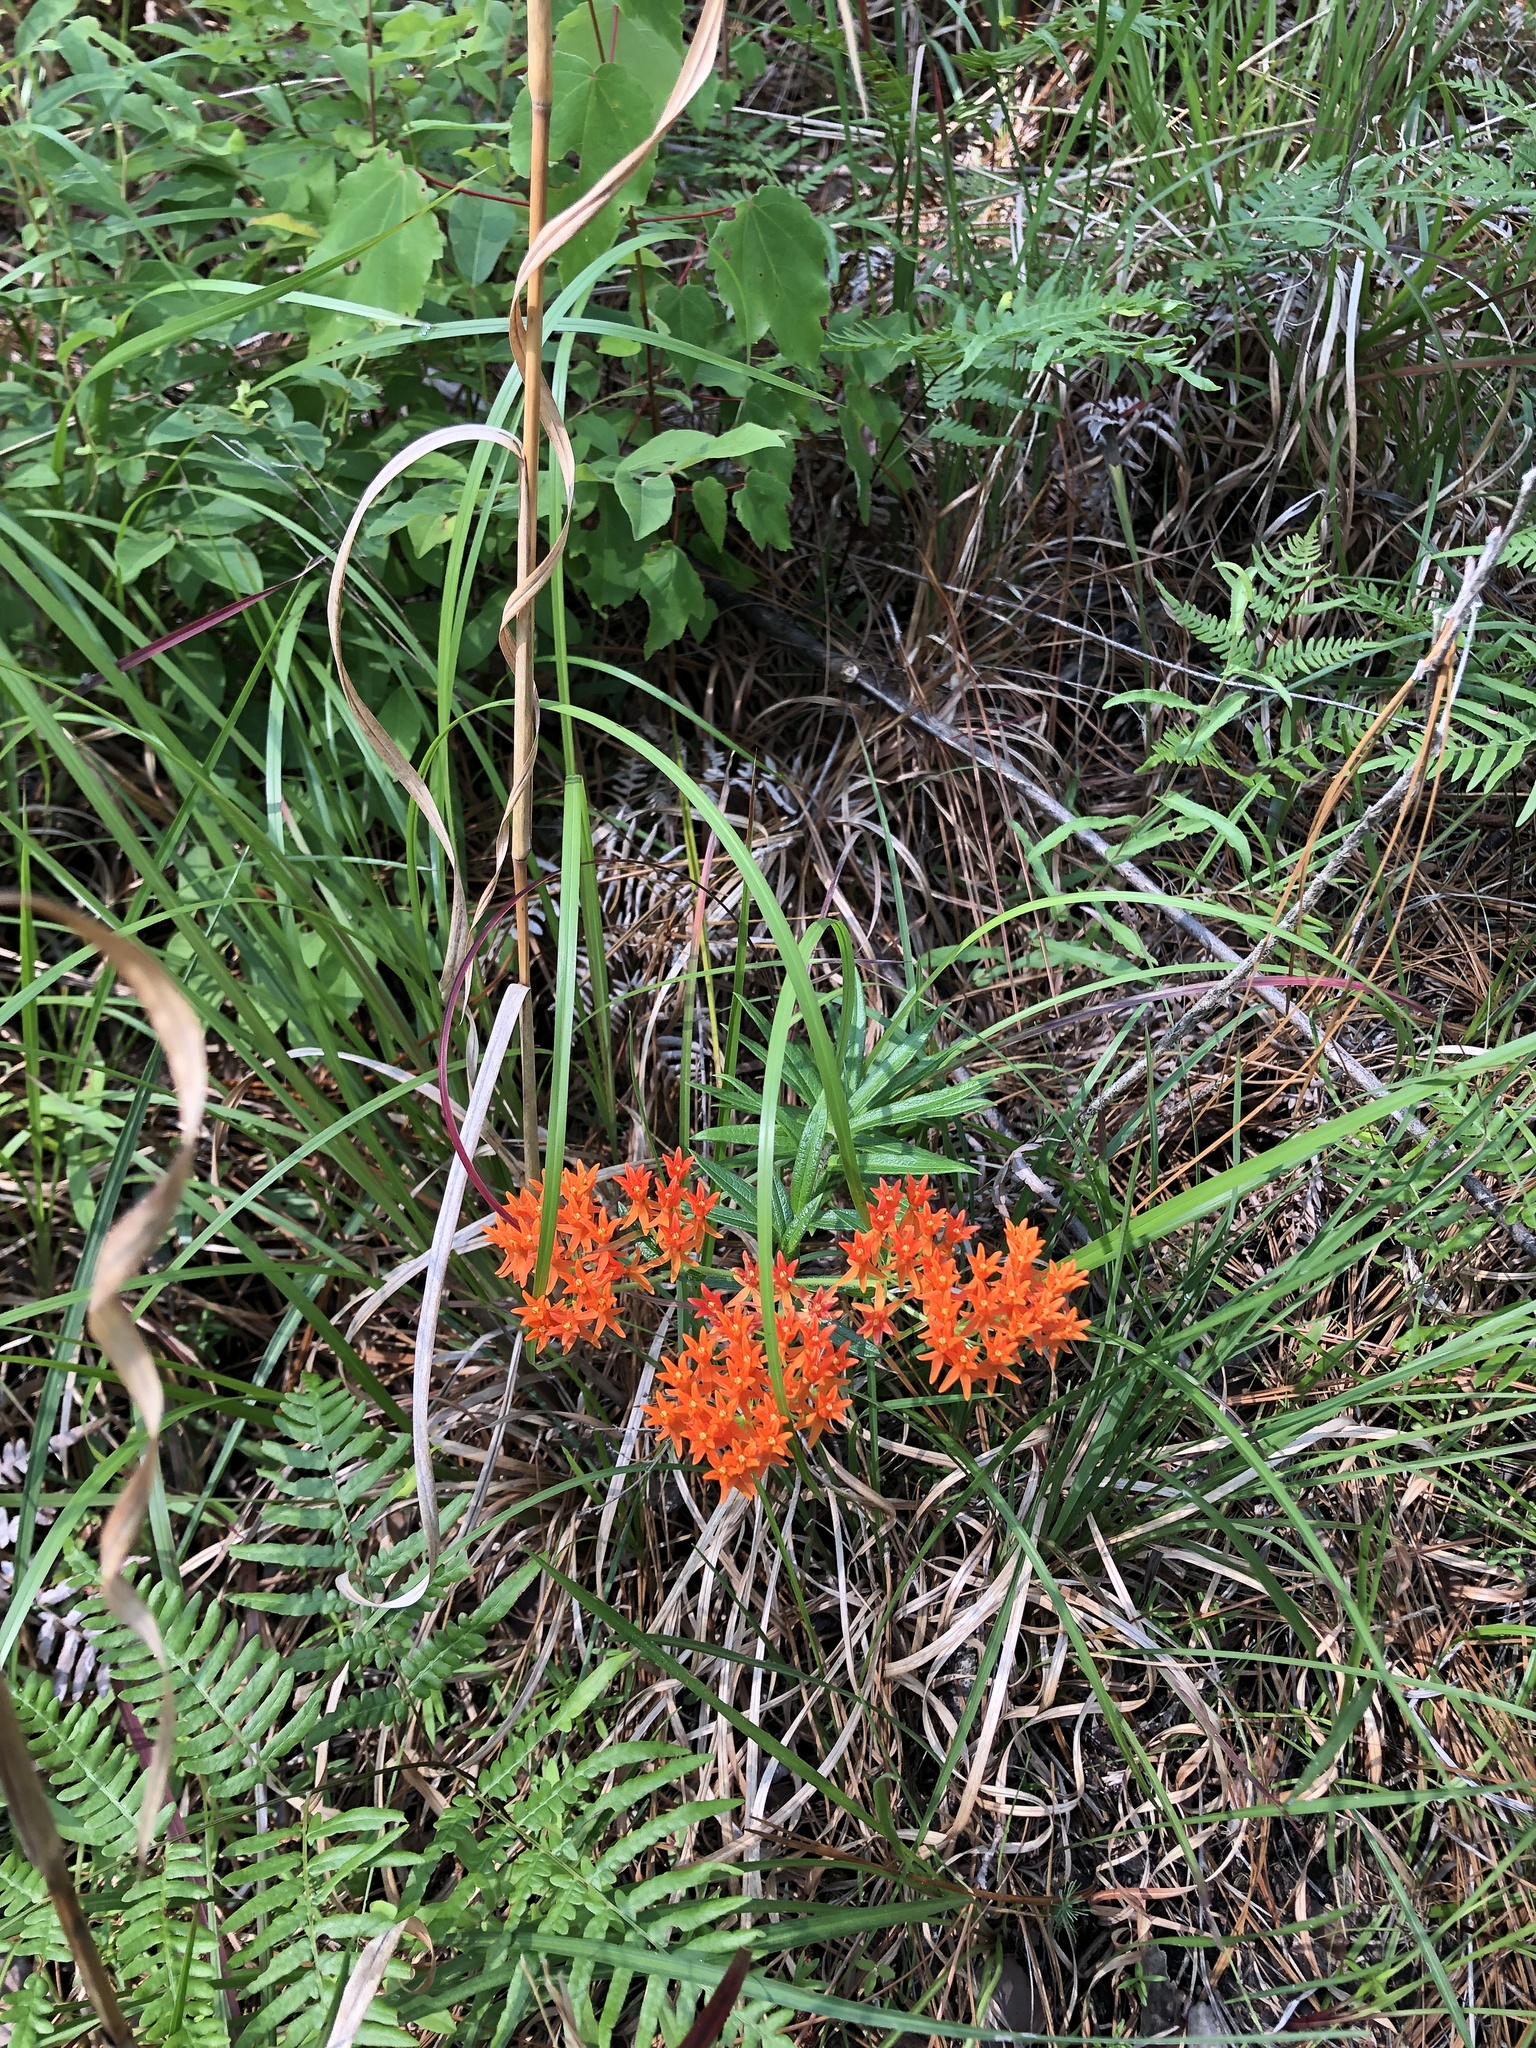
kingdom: Plantae
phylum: Tracheophyta
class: Magnoliopsida
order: Gentianales
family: Apocynaceae
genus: Asclepias
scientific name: Asclepias tuberosa
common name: Butterfly milkweed
